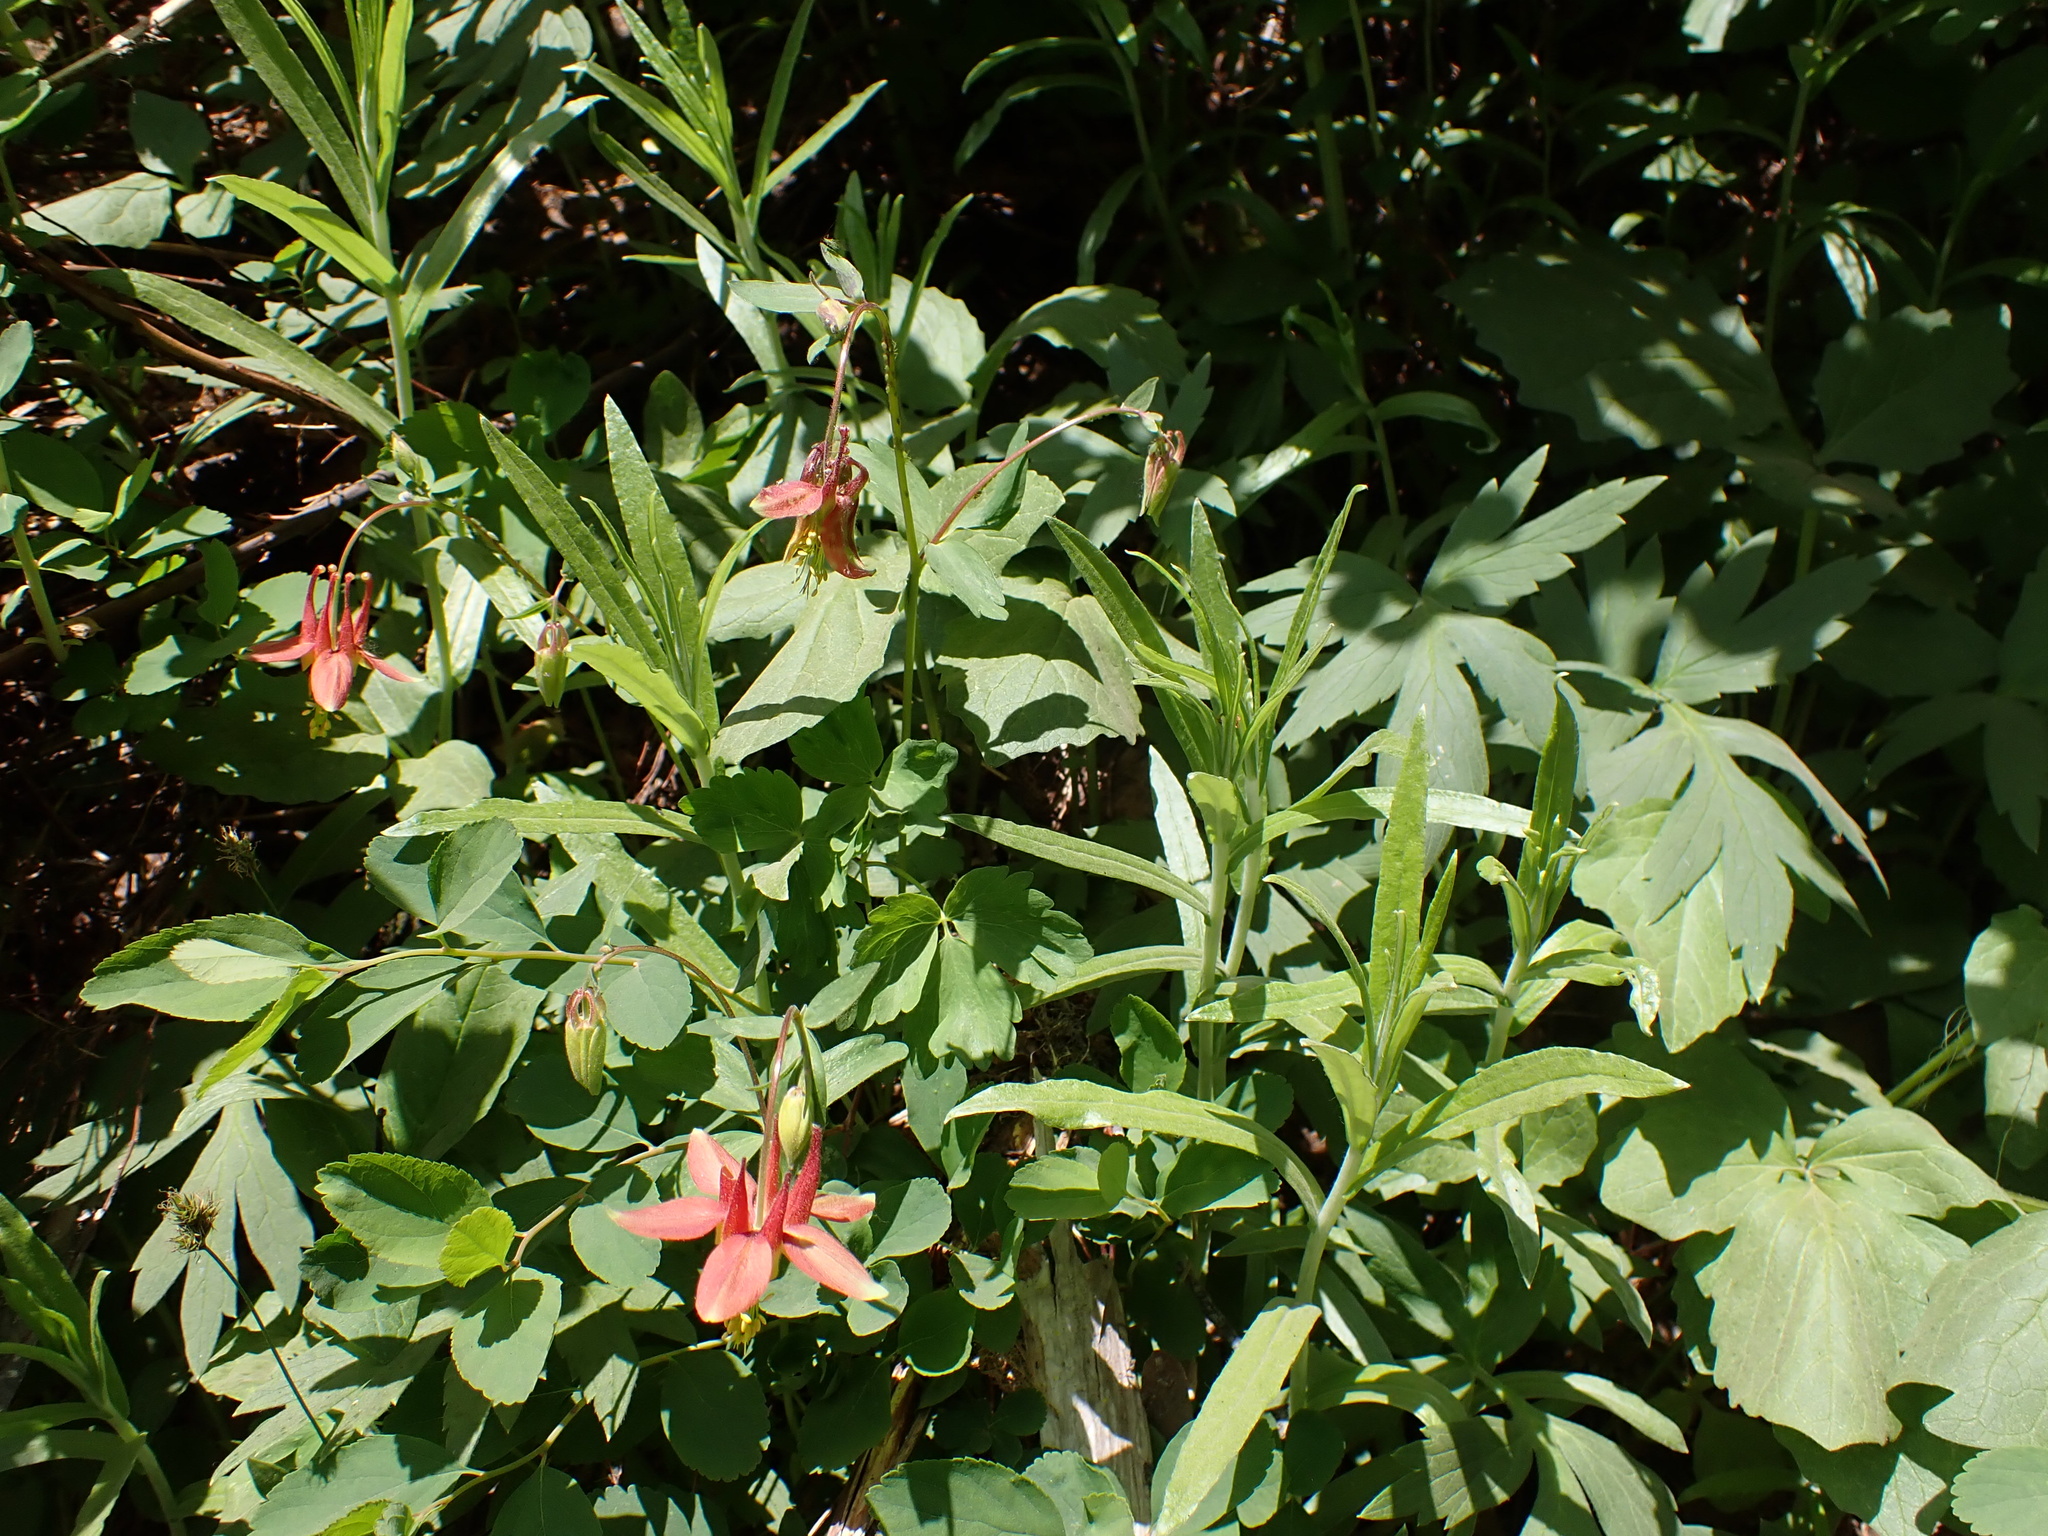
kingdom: Plantae
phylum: Tracheophyta
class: Magnoliopsida
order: Ranunculales
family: Ranunculaceae
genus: Aquilegia
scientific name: Aquilegia formosa
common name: Sitka columbine
